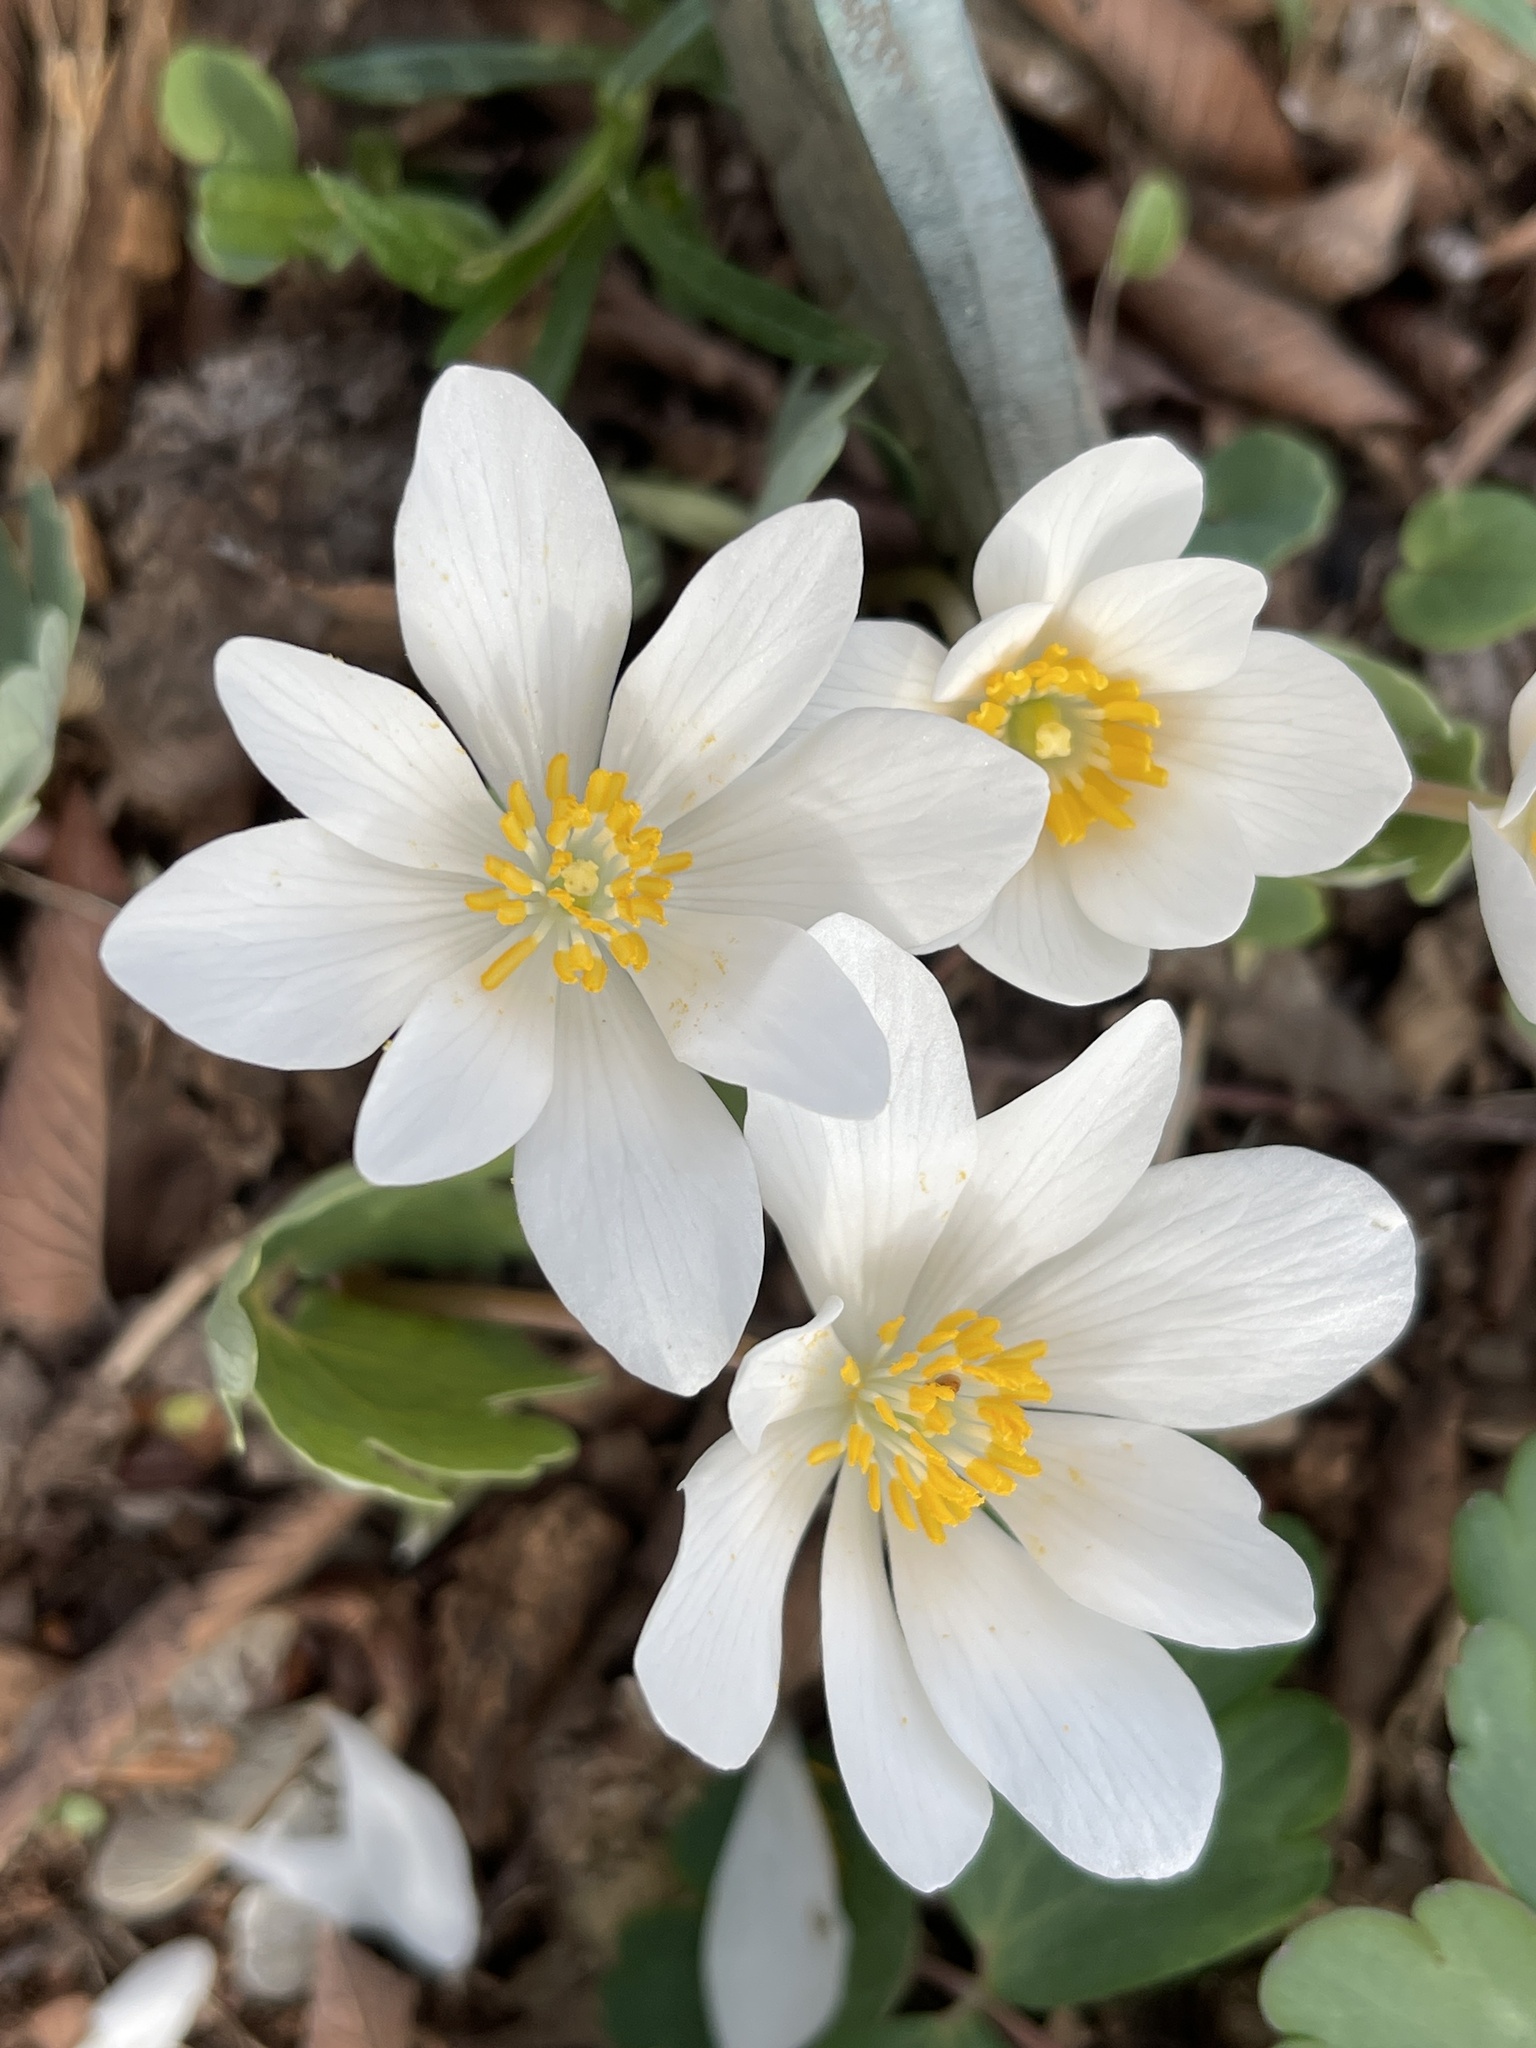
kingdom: Plantae
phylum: Tracheophyta
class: Magnoliopsida
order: Ranunculales
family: Papaveraceae
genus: Sanguinaria
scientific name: Sanguinaria canadensis
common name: Bloodroot
